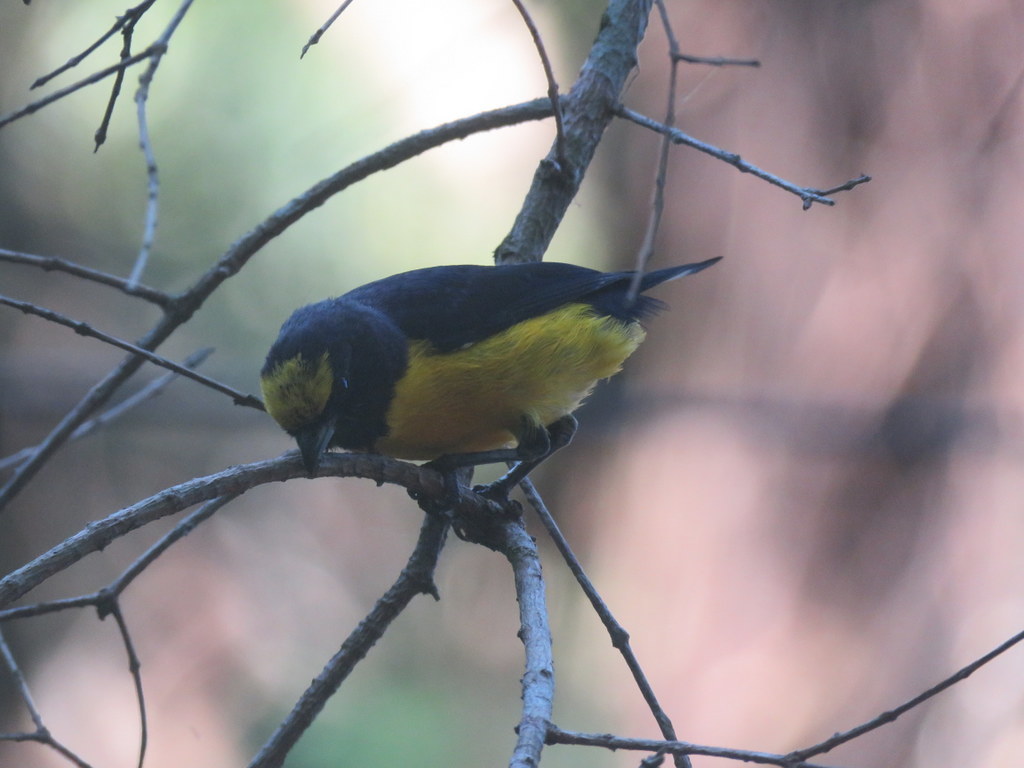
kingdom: Animalia
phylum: Chordata
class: Aves
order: Passeriformes
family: Fringillidae
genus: Euphonia
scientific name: Euphonia chlorotica
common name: Purple-throated euphonia
